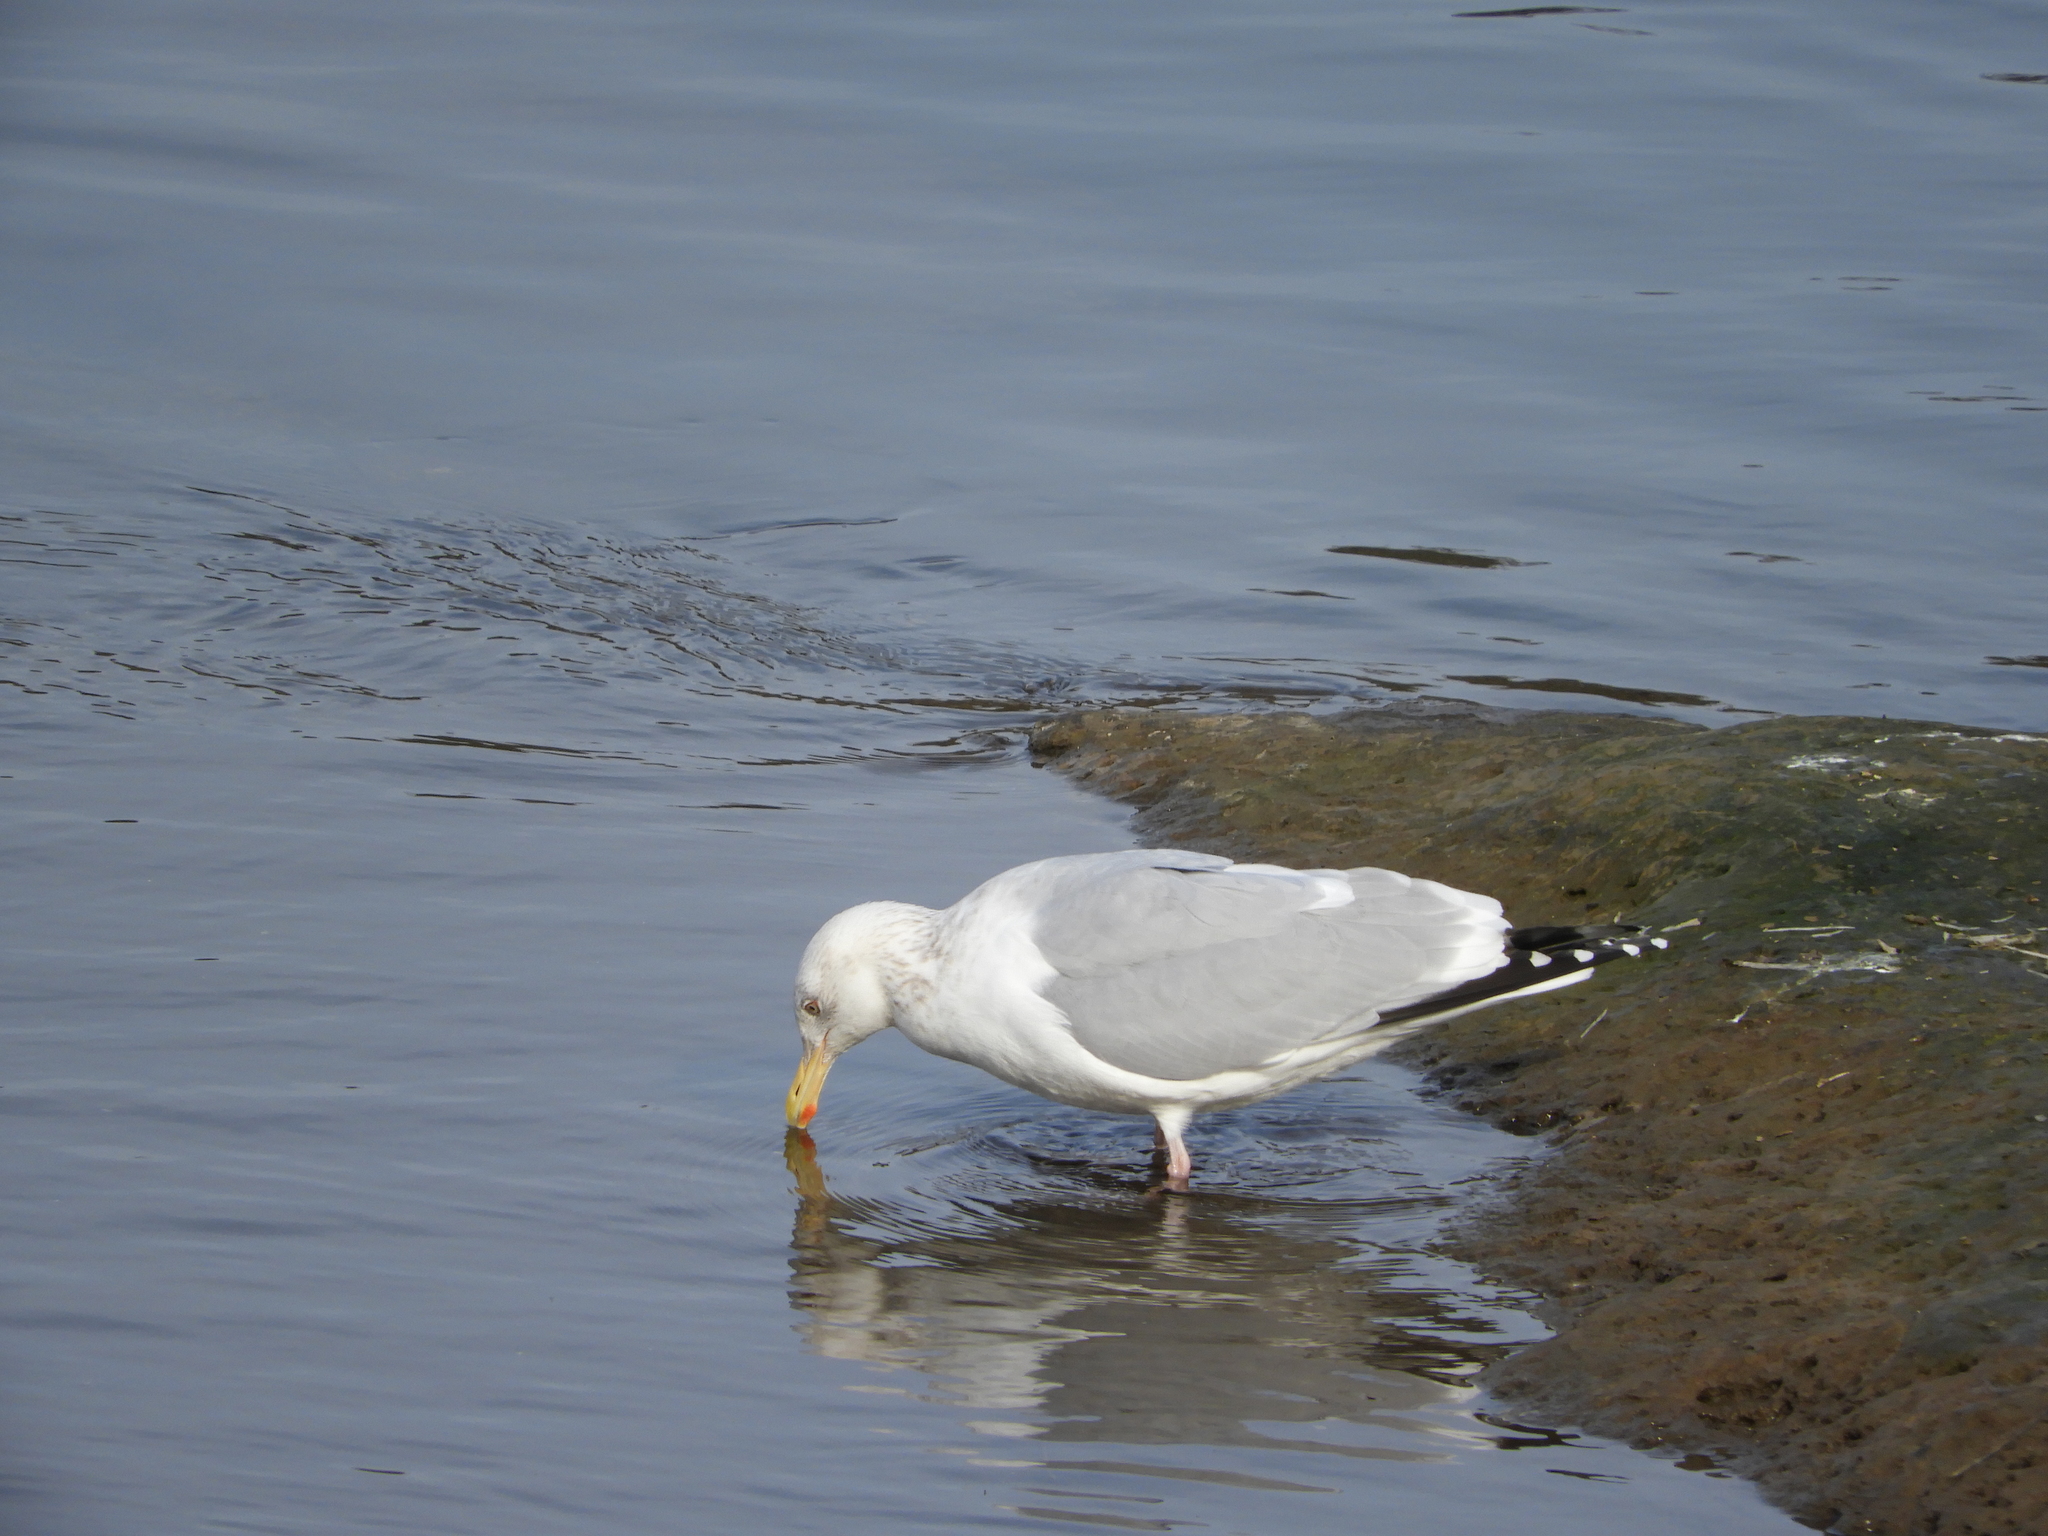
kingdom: Animalia
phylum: Chordata
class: Aves
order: Charadriiformes
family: Laridae
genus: Larus
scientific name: Larus argentatus
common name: Herring gull
